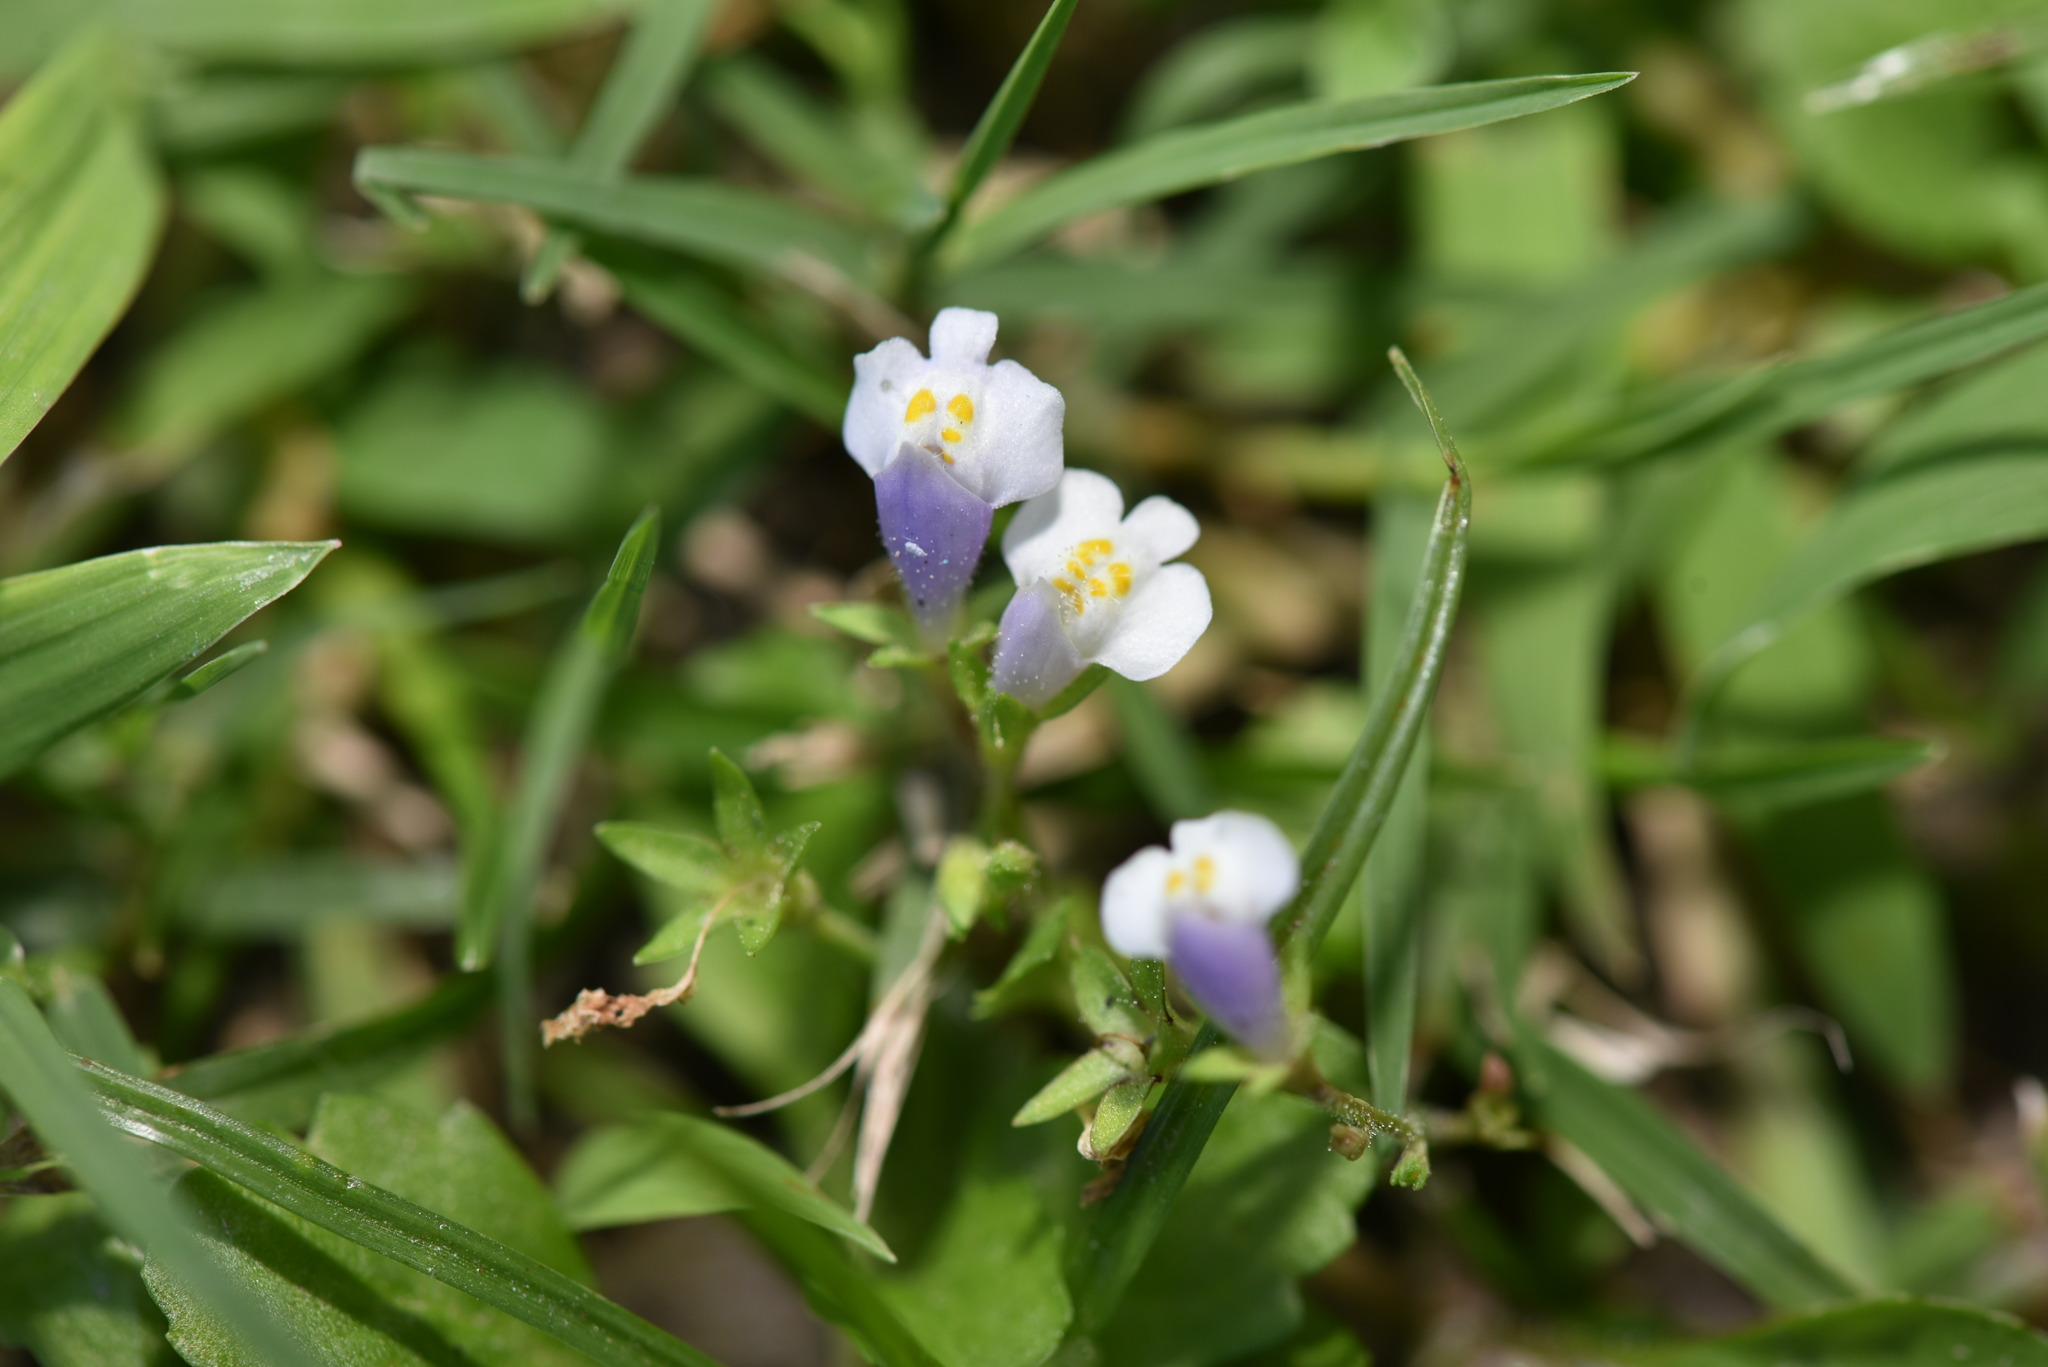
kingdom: Plantae
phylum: Tracheophyta
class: Magnoliopsida
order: Lamiales
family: Mazaceae
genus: Mazus
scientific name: Mazus pumilus
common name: Japanese mazus
